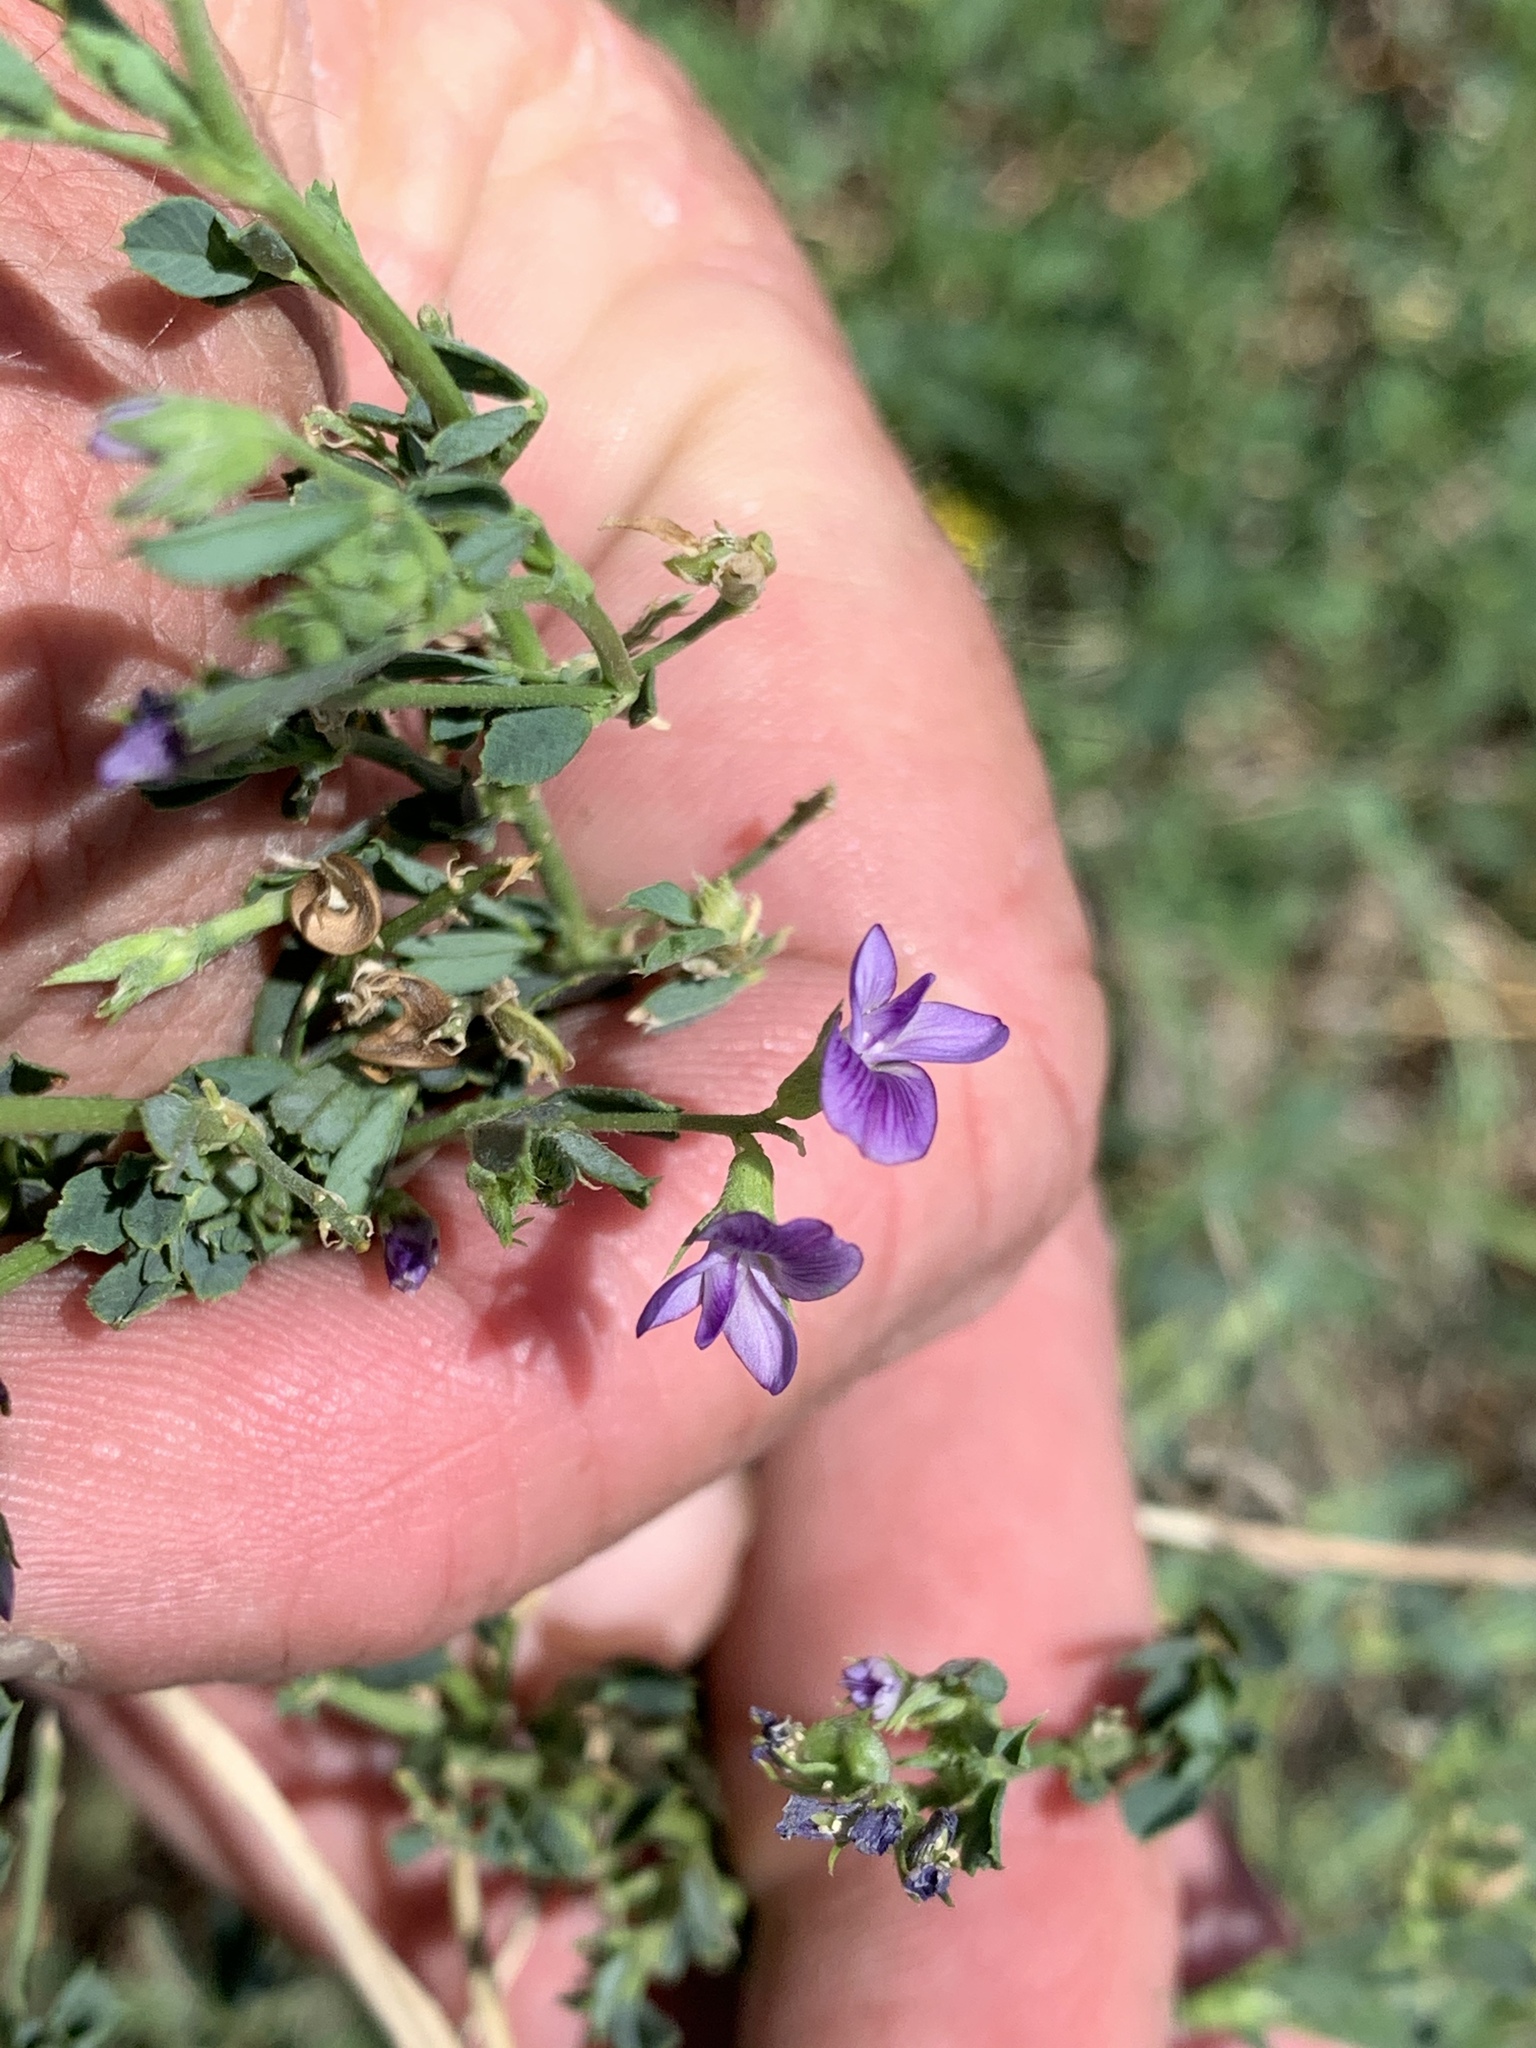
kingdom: Plantae
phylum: Tracheophyta
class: Magnoliopsida
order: Fabales
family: Fabaceae
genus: Medicago
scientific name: Medicago sativa
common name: Alfalfa
